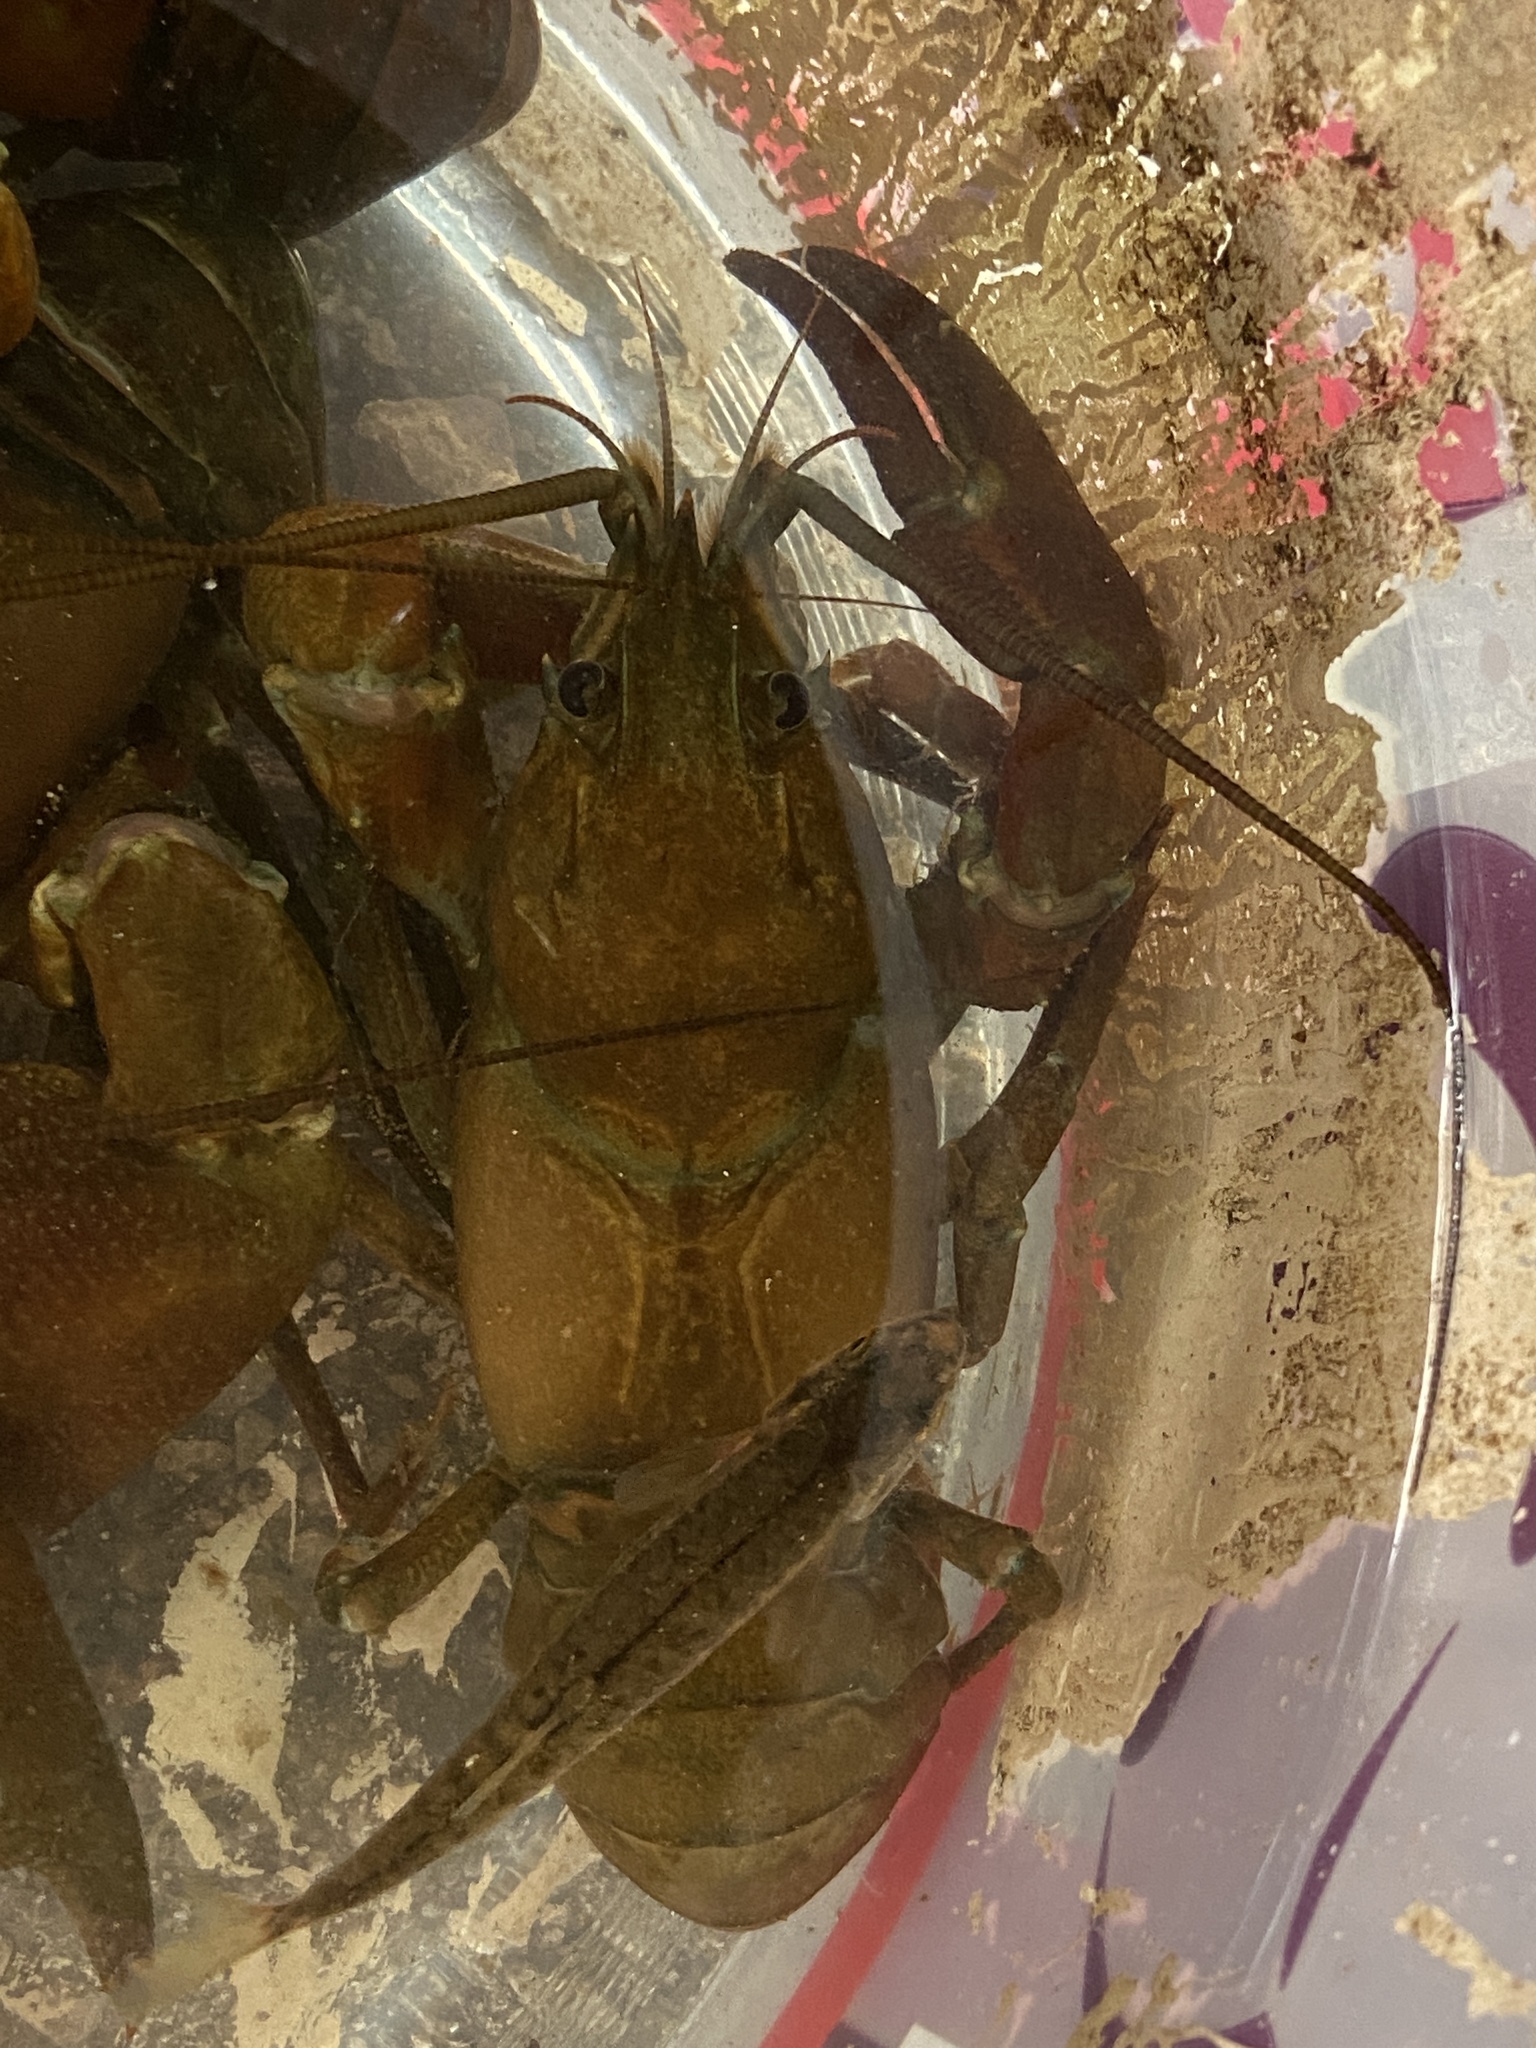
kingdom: Animalia
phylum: Arthropoda
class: Malacostraca
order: Decapoda
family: Astacidae
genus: Pacifastacus
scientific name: Pacifastacus leniusculus
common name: Signal crayfish
